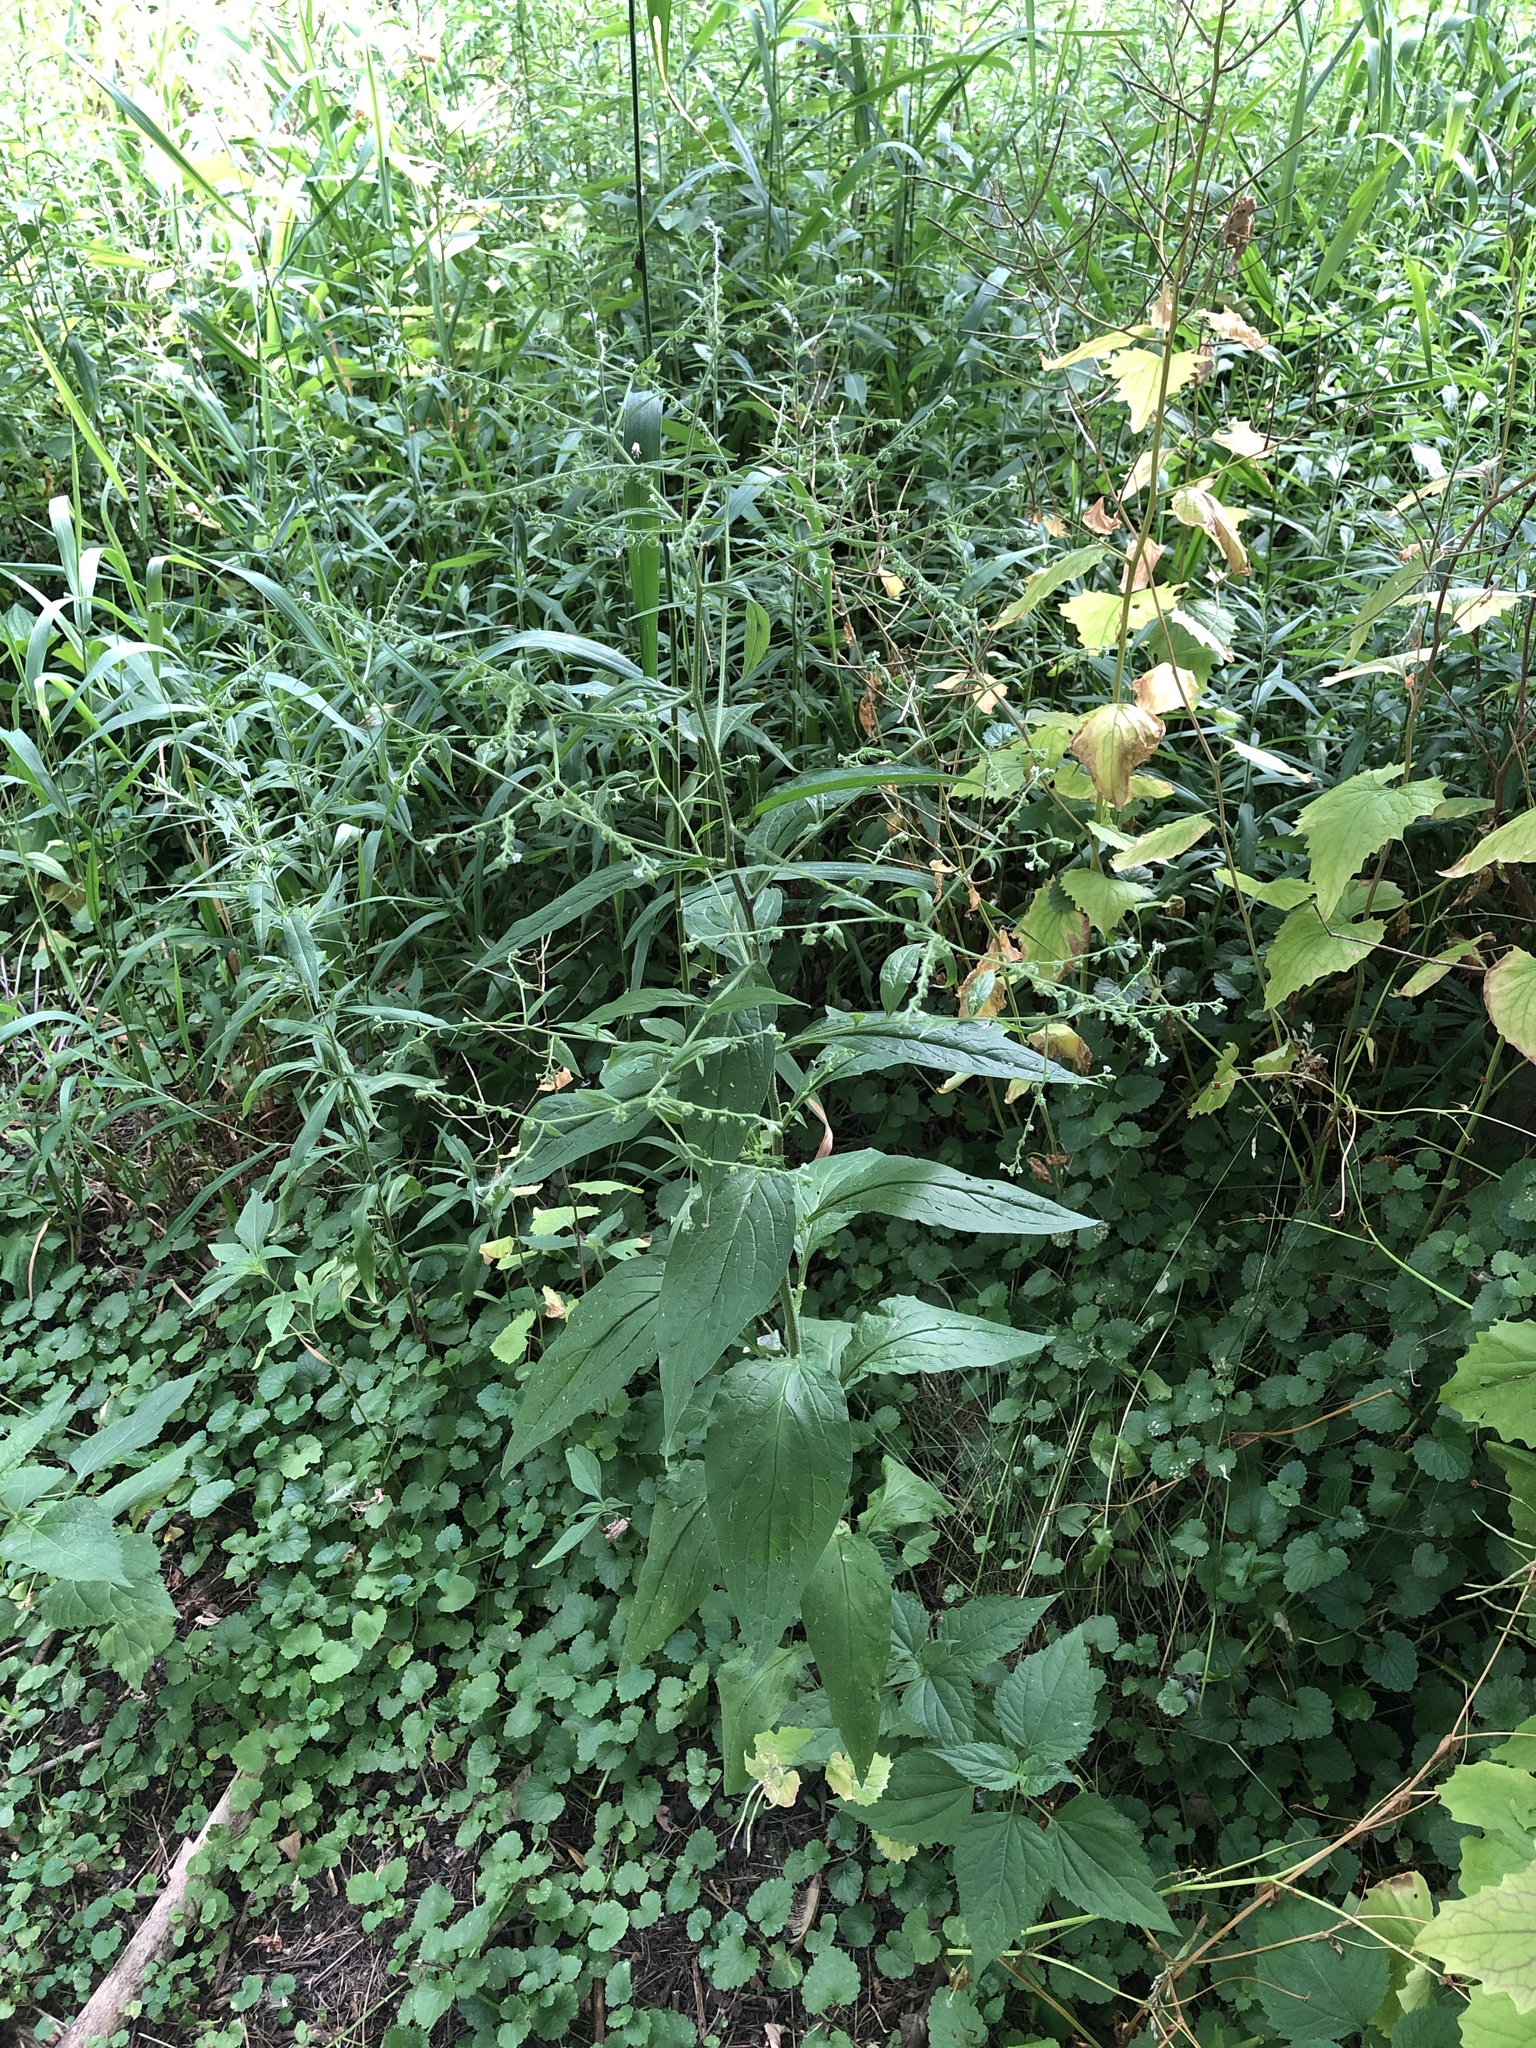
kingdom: Plantae
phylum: Tracheophyta
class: Magnoliopsida
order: Boraginales
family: Boraginaceae
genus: Hackelia
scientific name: Hackelia virginiana
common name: Beggar's-lice
